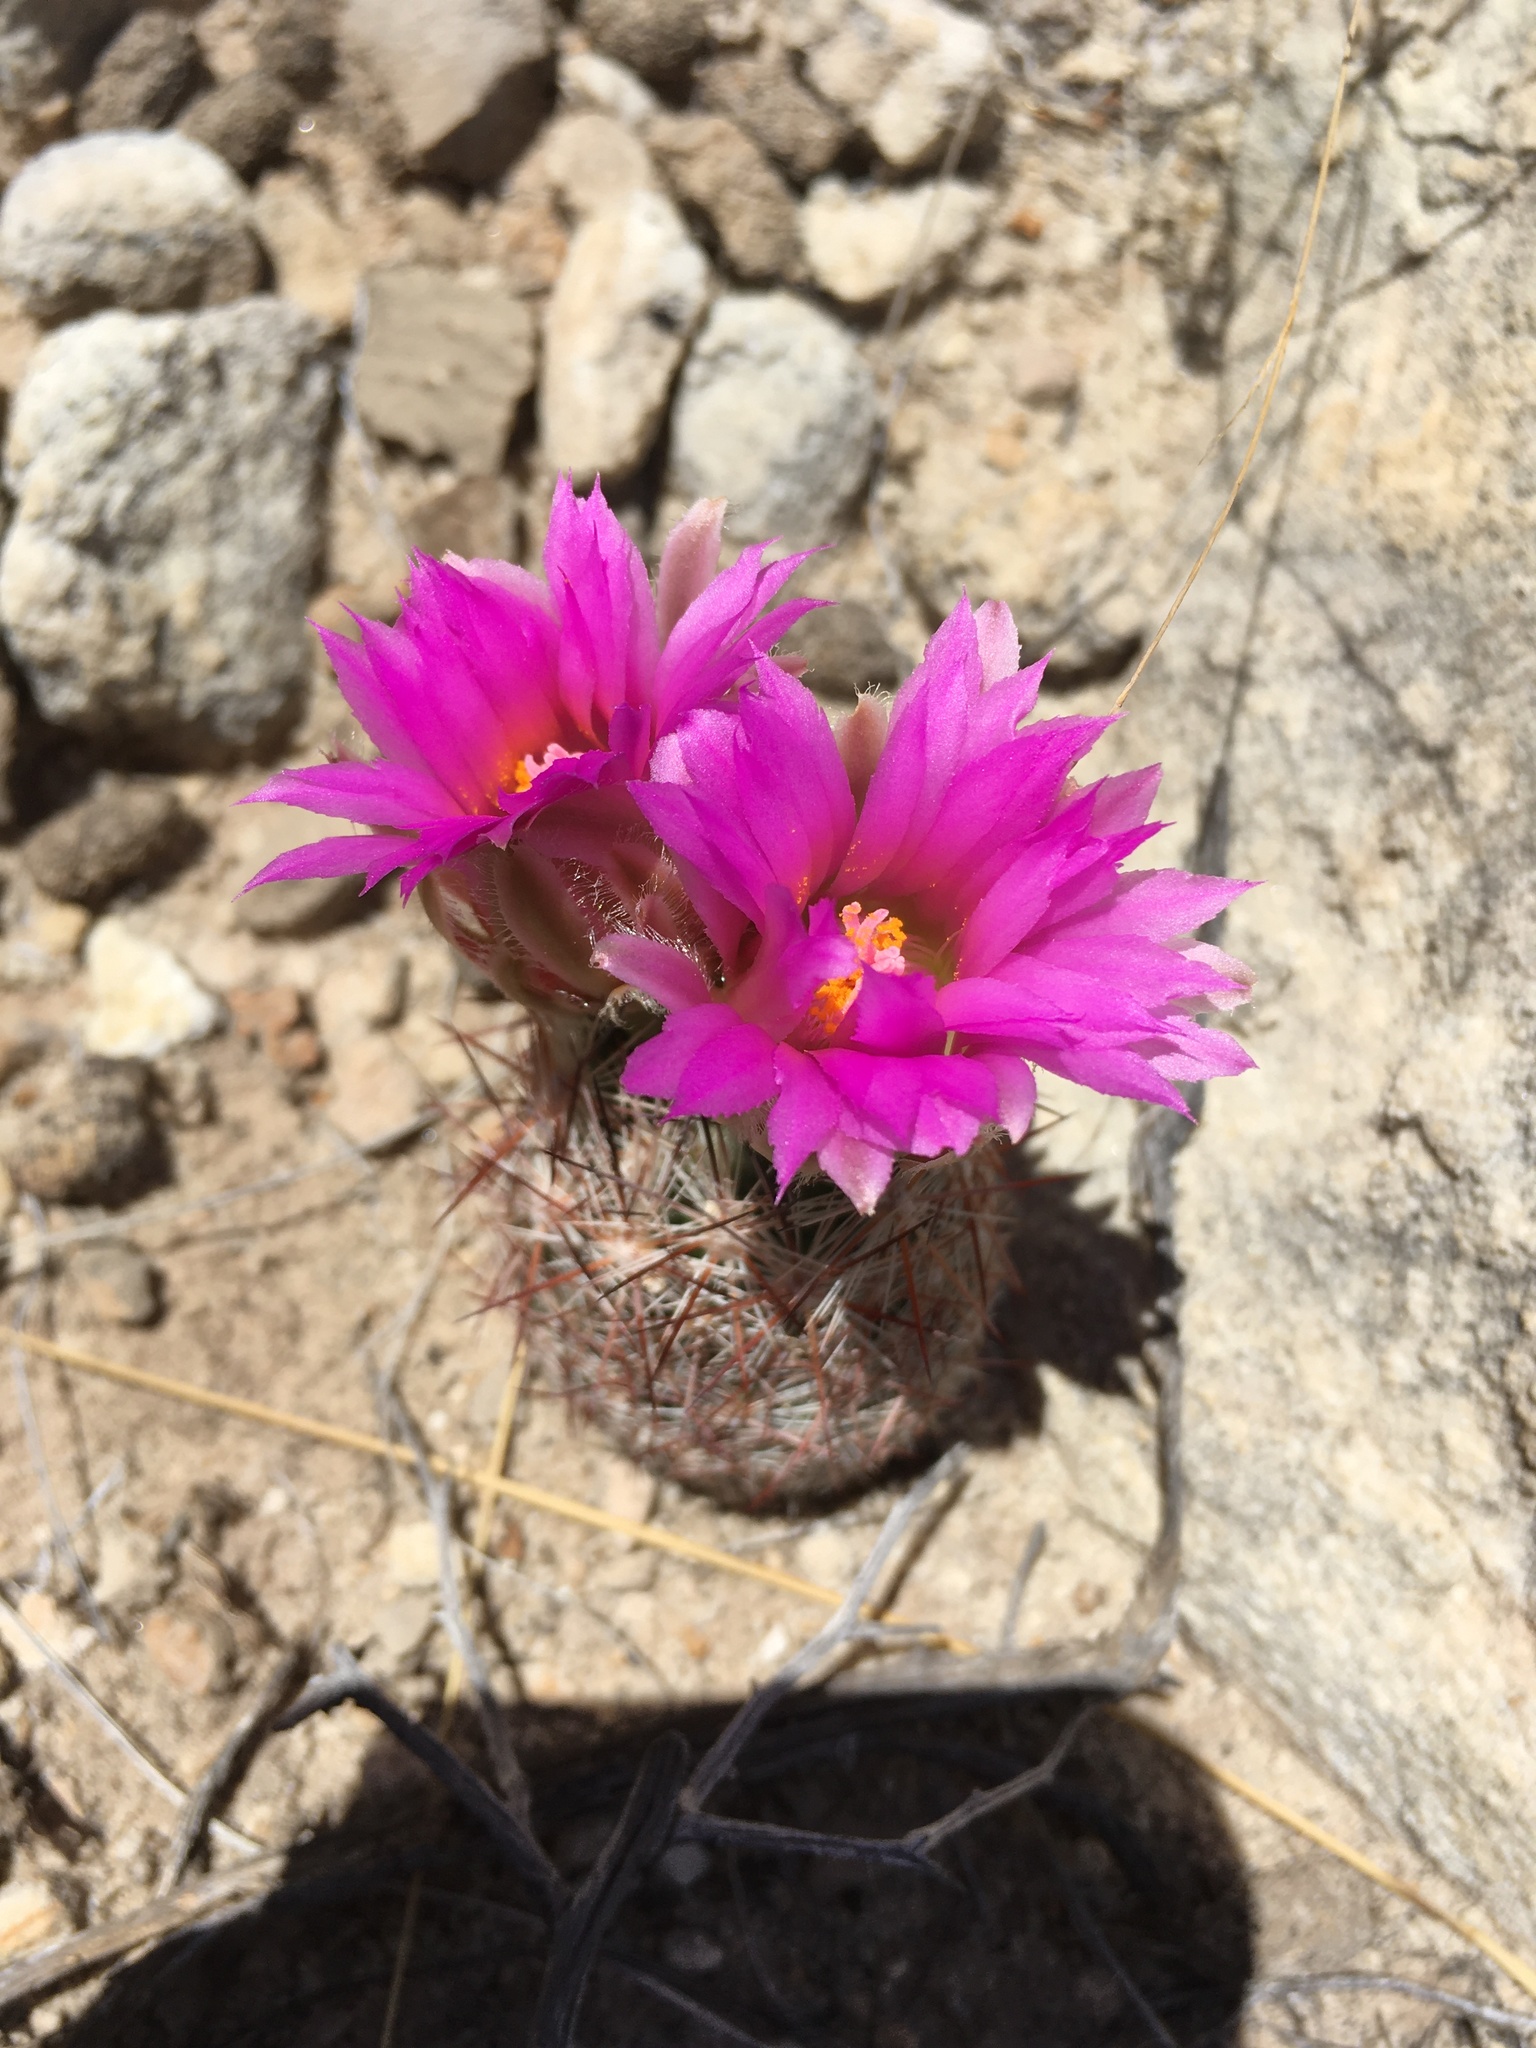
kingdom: Plantae
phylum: Tracheophyta
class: Magnoliopsida
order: Caryophyllales
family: Cactaceae
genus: Pelecyphora
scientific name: Pelecyphora vivipara
